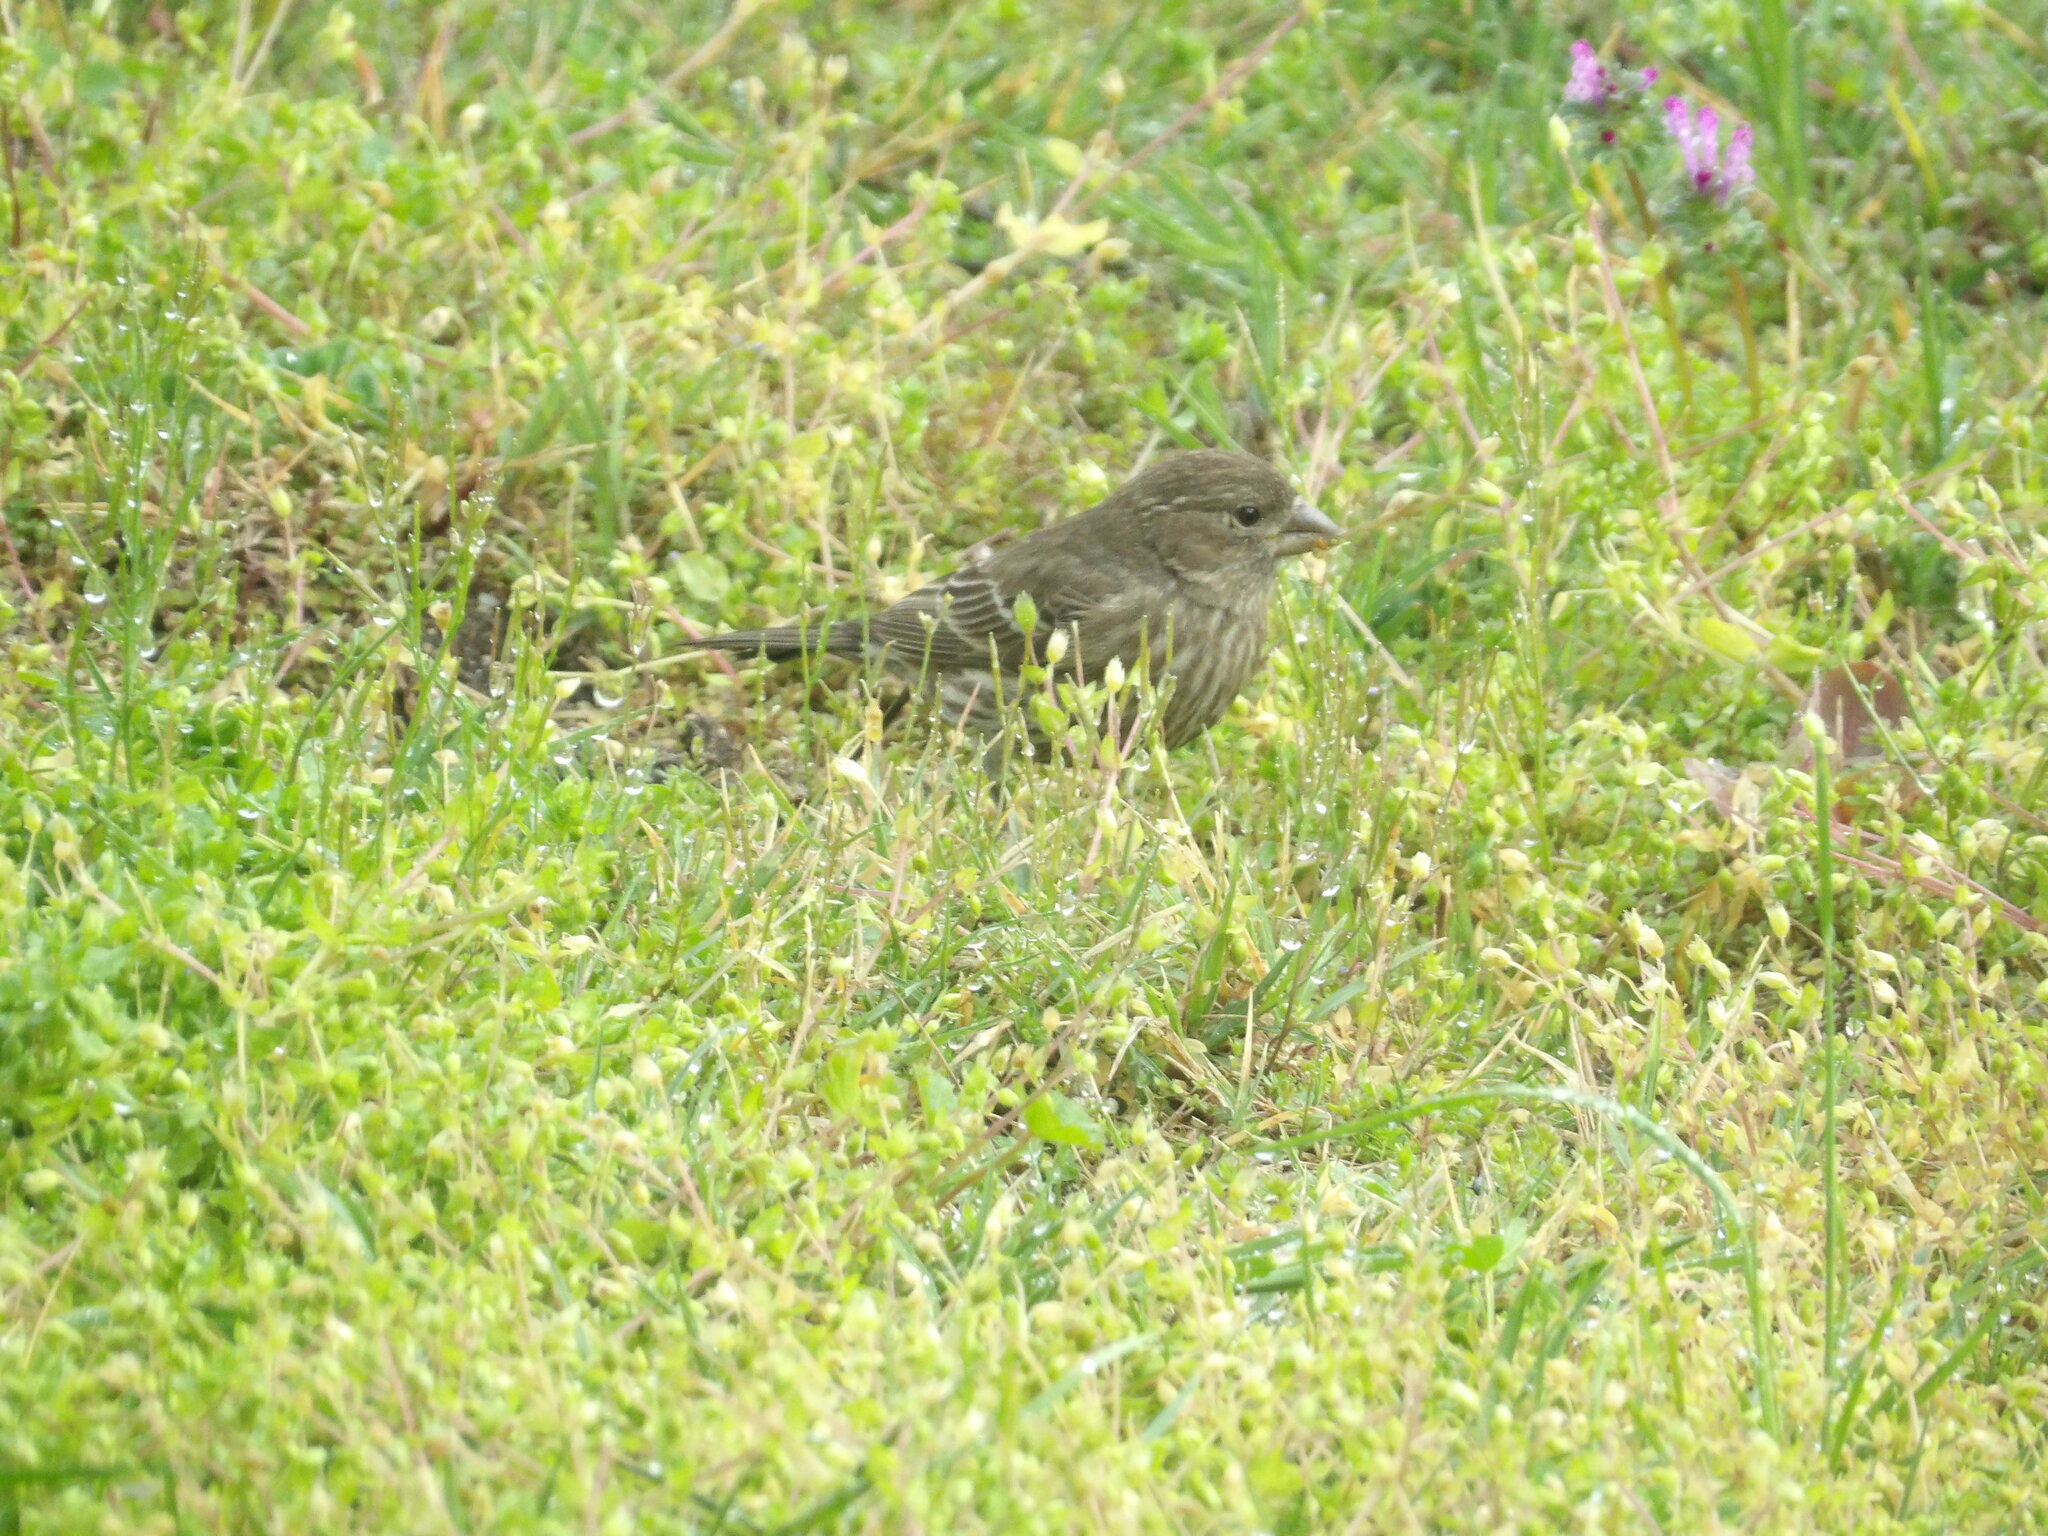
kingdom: Animalia
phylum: Chordata
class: Aves
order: Passeriformes
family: Fringillidae
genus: Haemorhous
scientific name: Haemorhous mexicanus
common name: House finch
